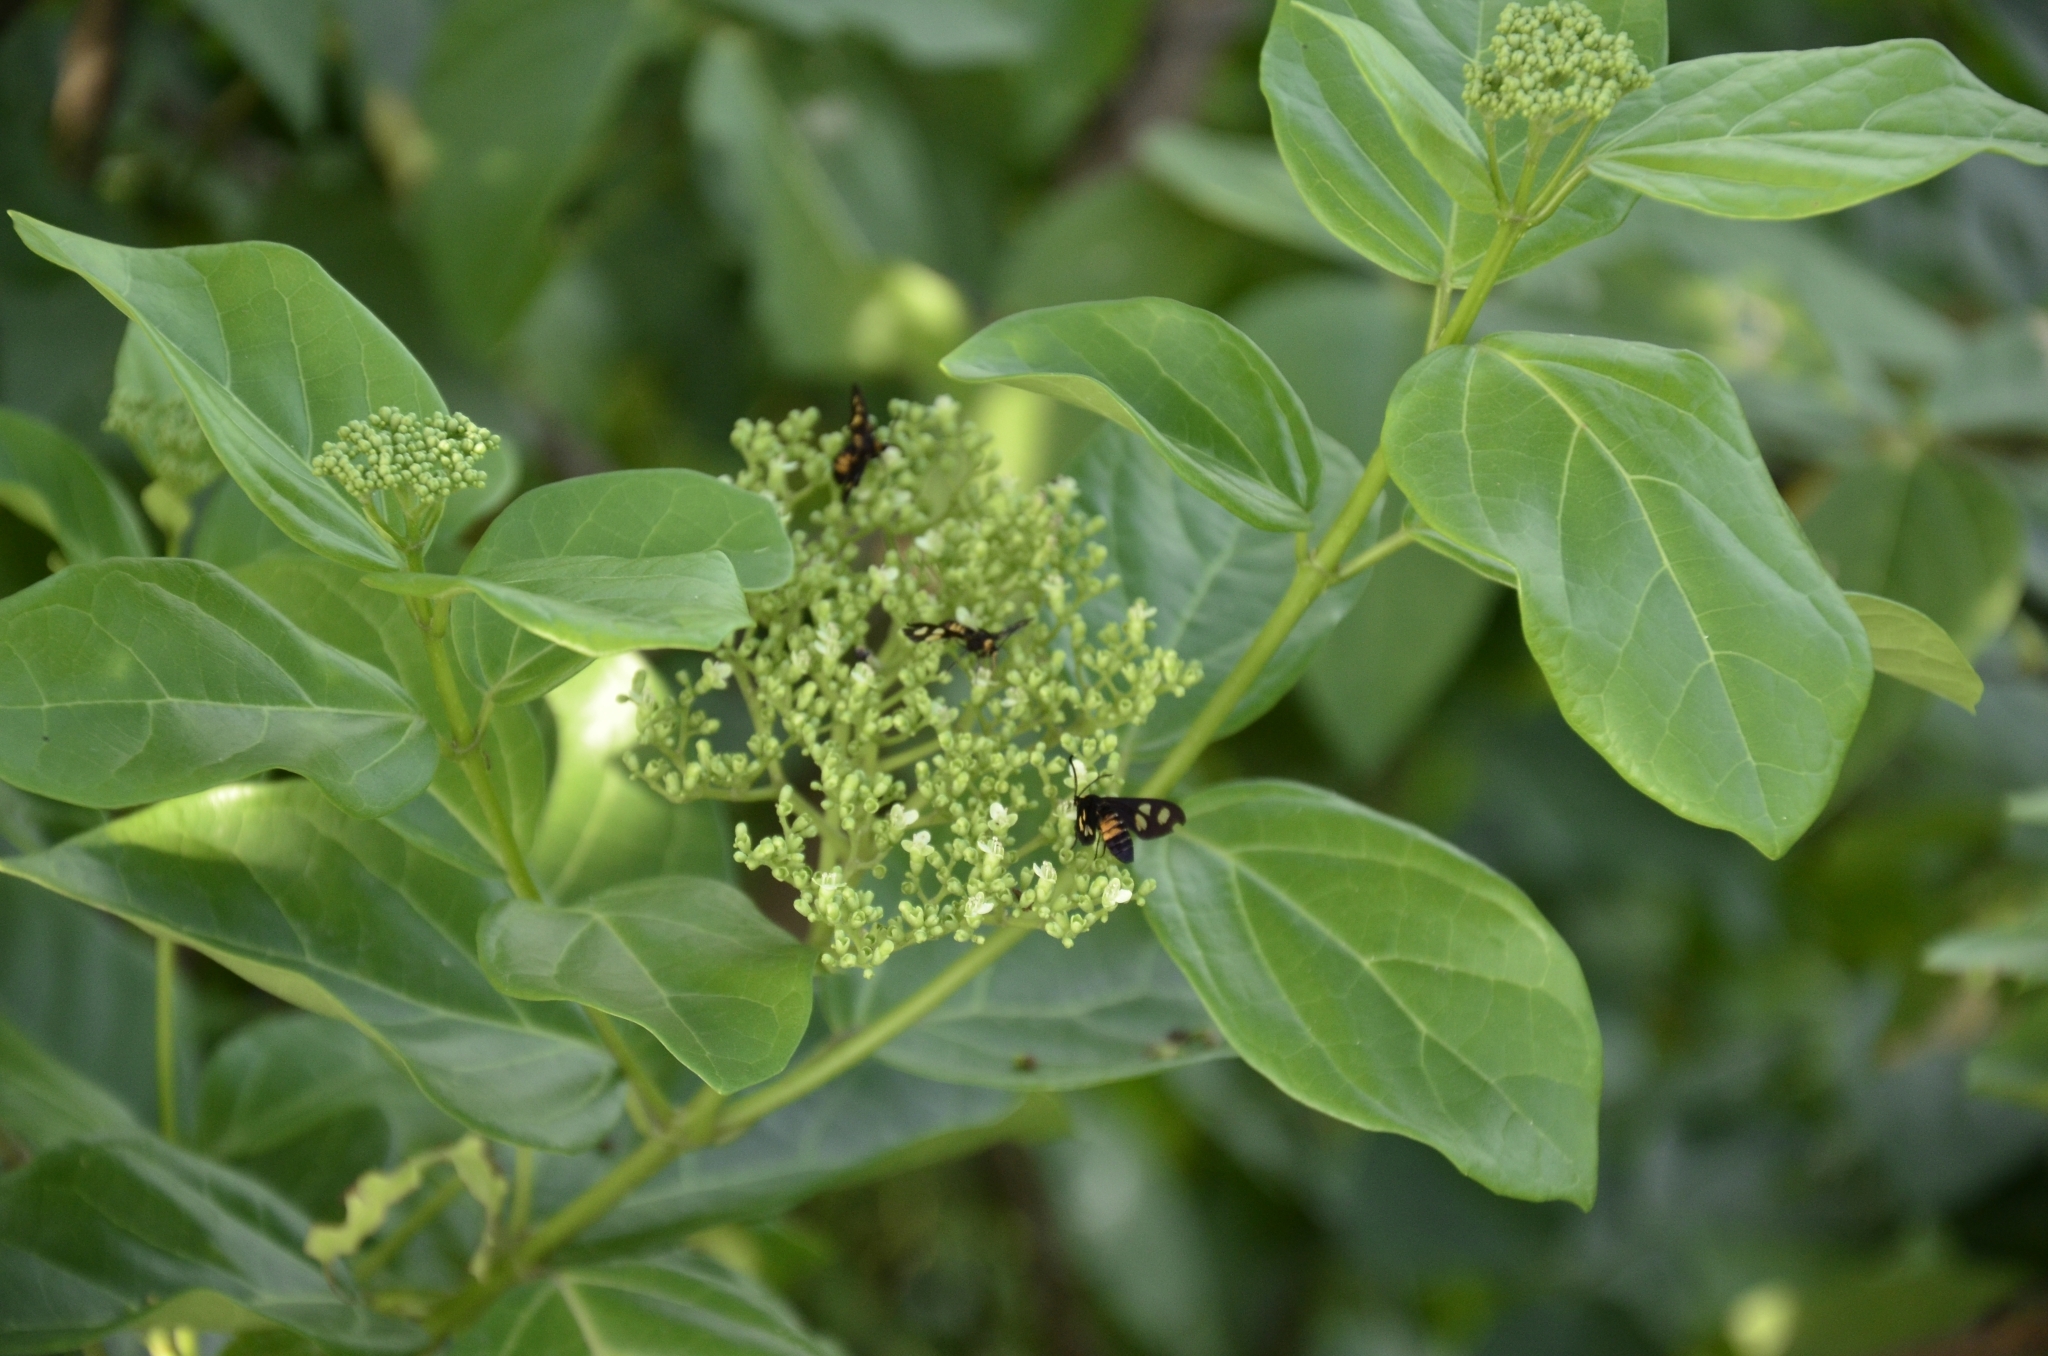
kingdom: Plantae
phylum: Tracheophyta
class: Magnoliopsida
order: Lamiales
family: Lamiaceae
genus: Premna
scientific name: Premna serratifolia
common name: Bastard guelder
